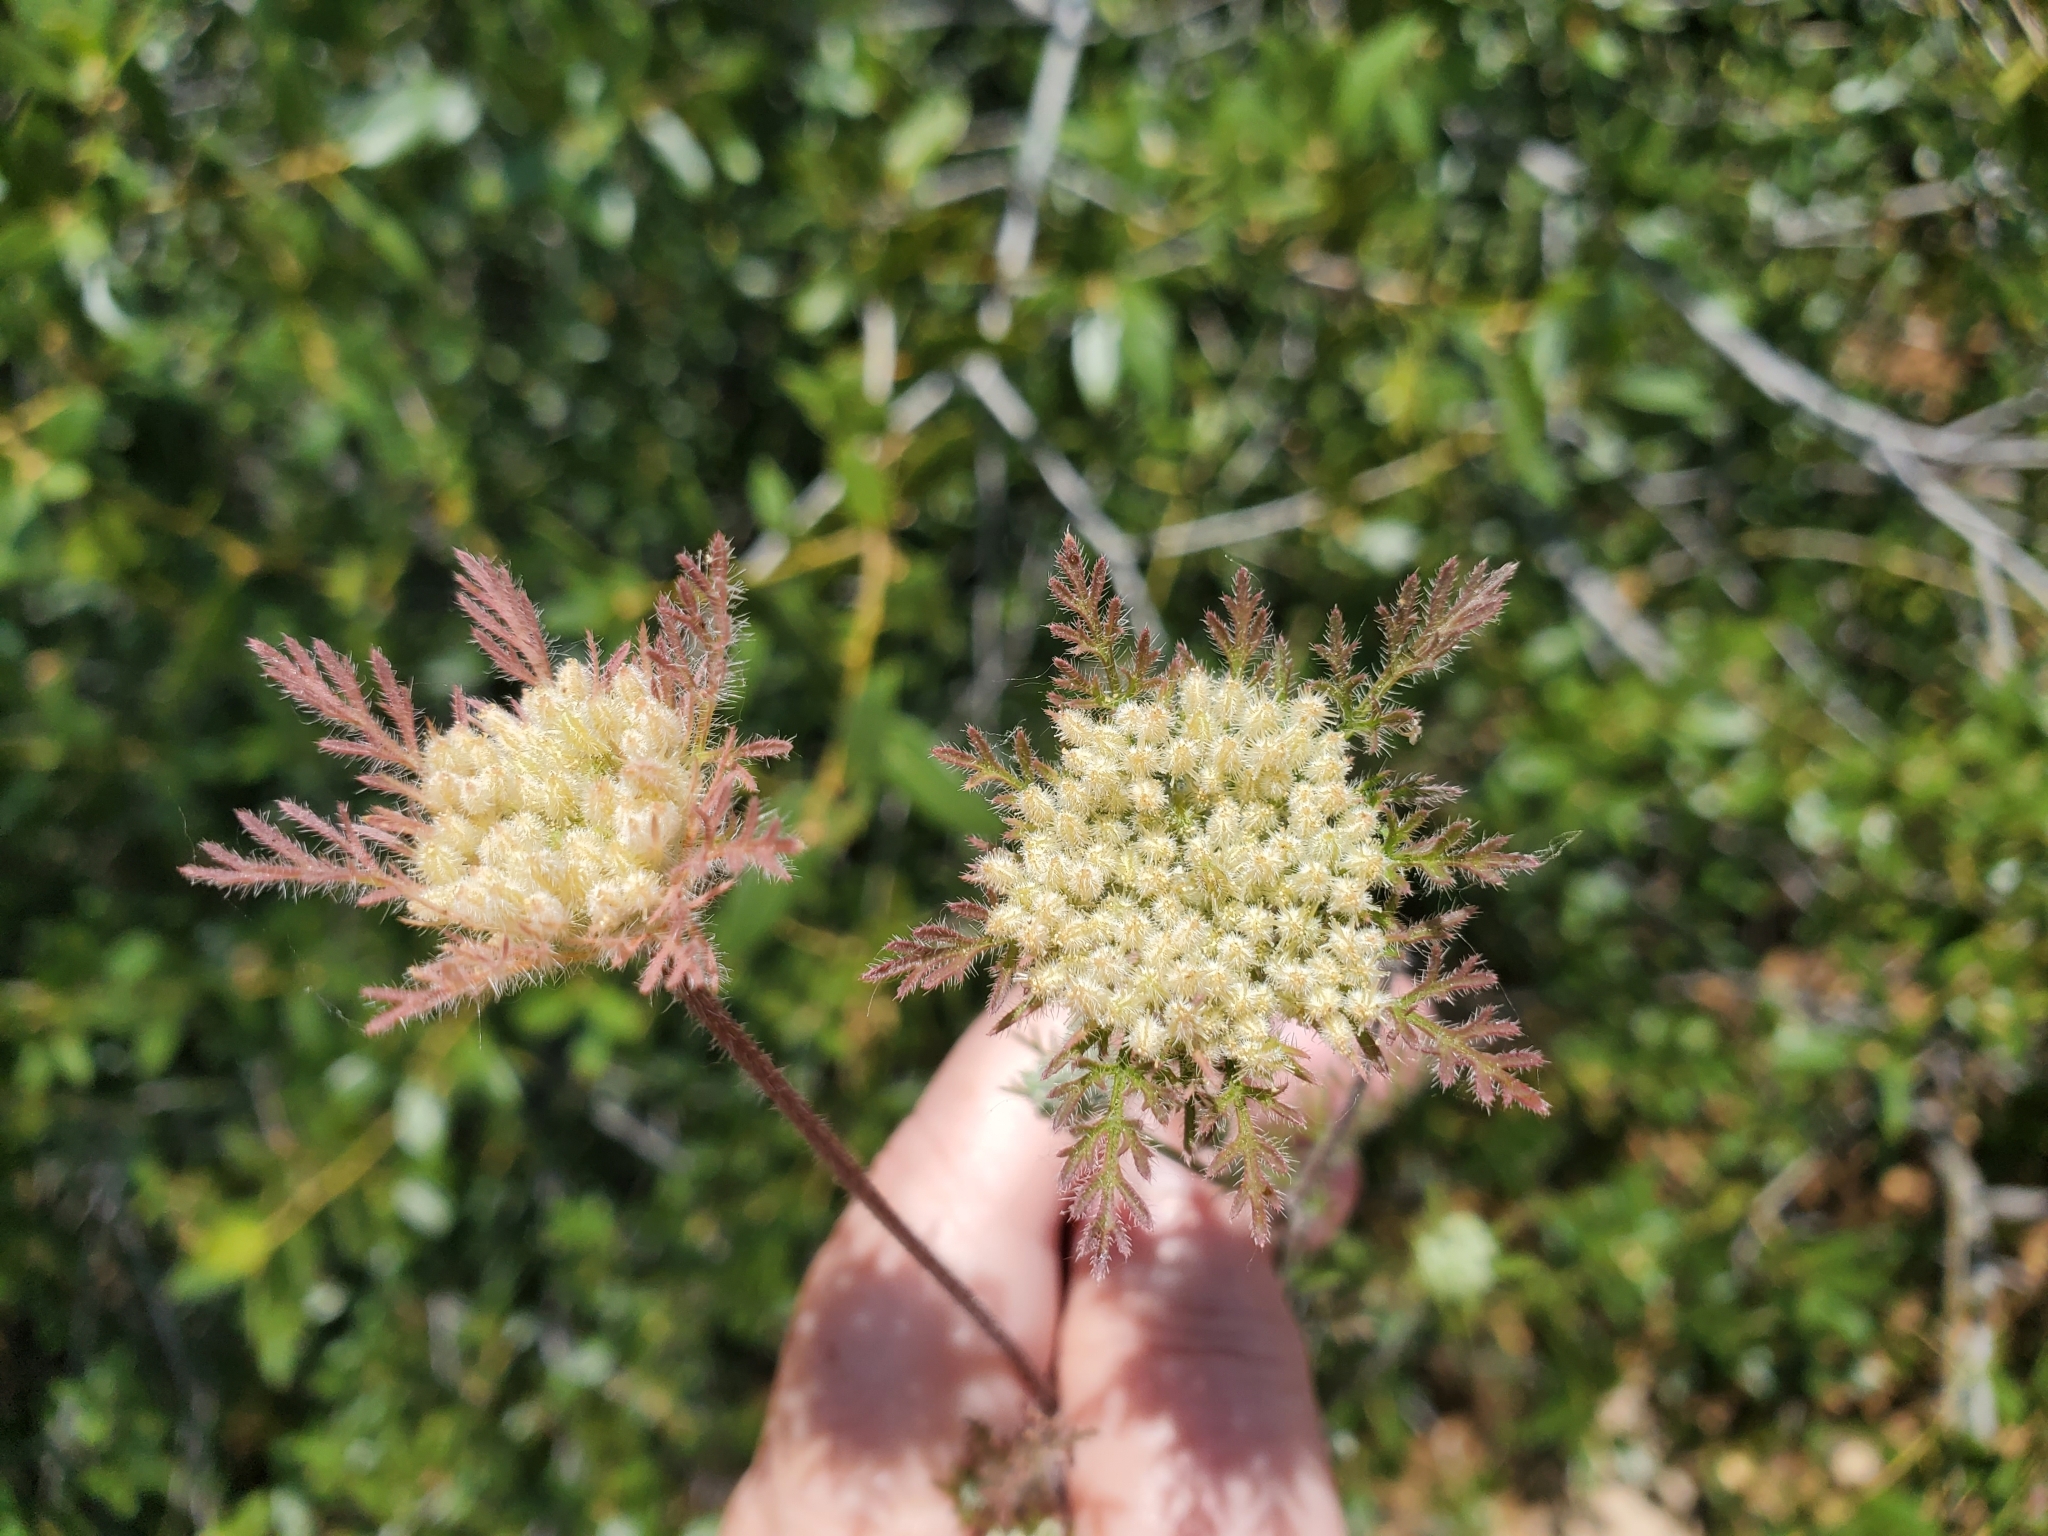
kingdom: Plantae
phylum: Tracheophyta
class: Magnoliopsida
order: Apiales
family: Apiaceae
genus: Daucus
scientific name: Daucus pusillus
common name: Southwest wild carrot
